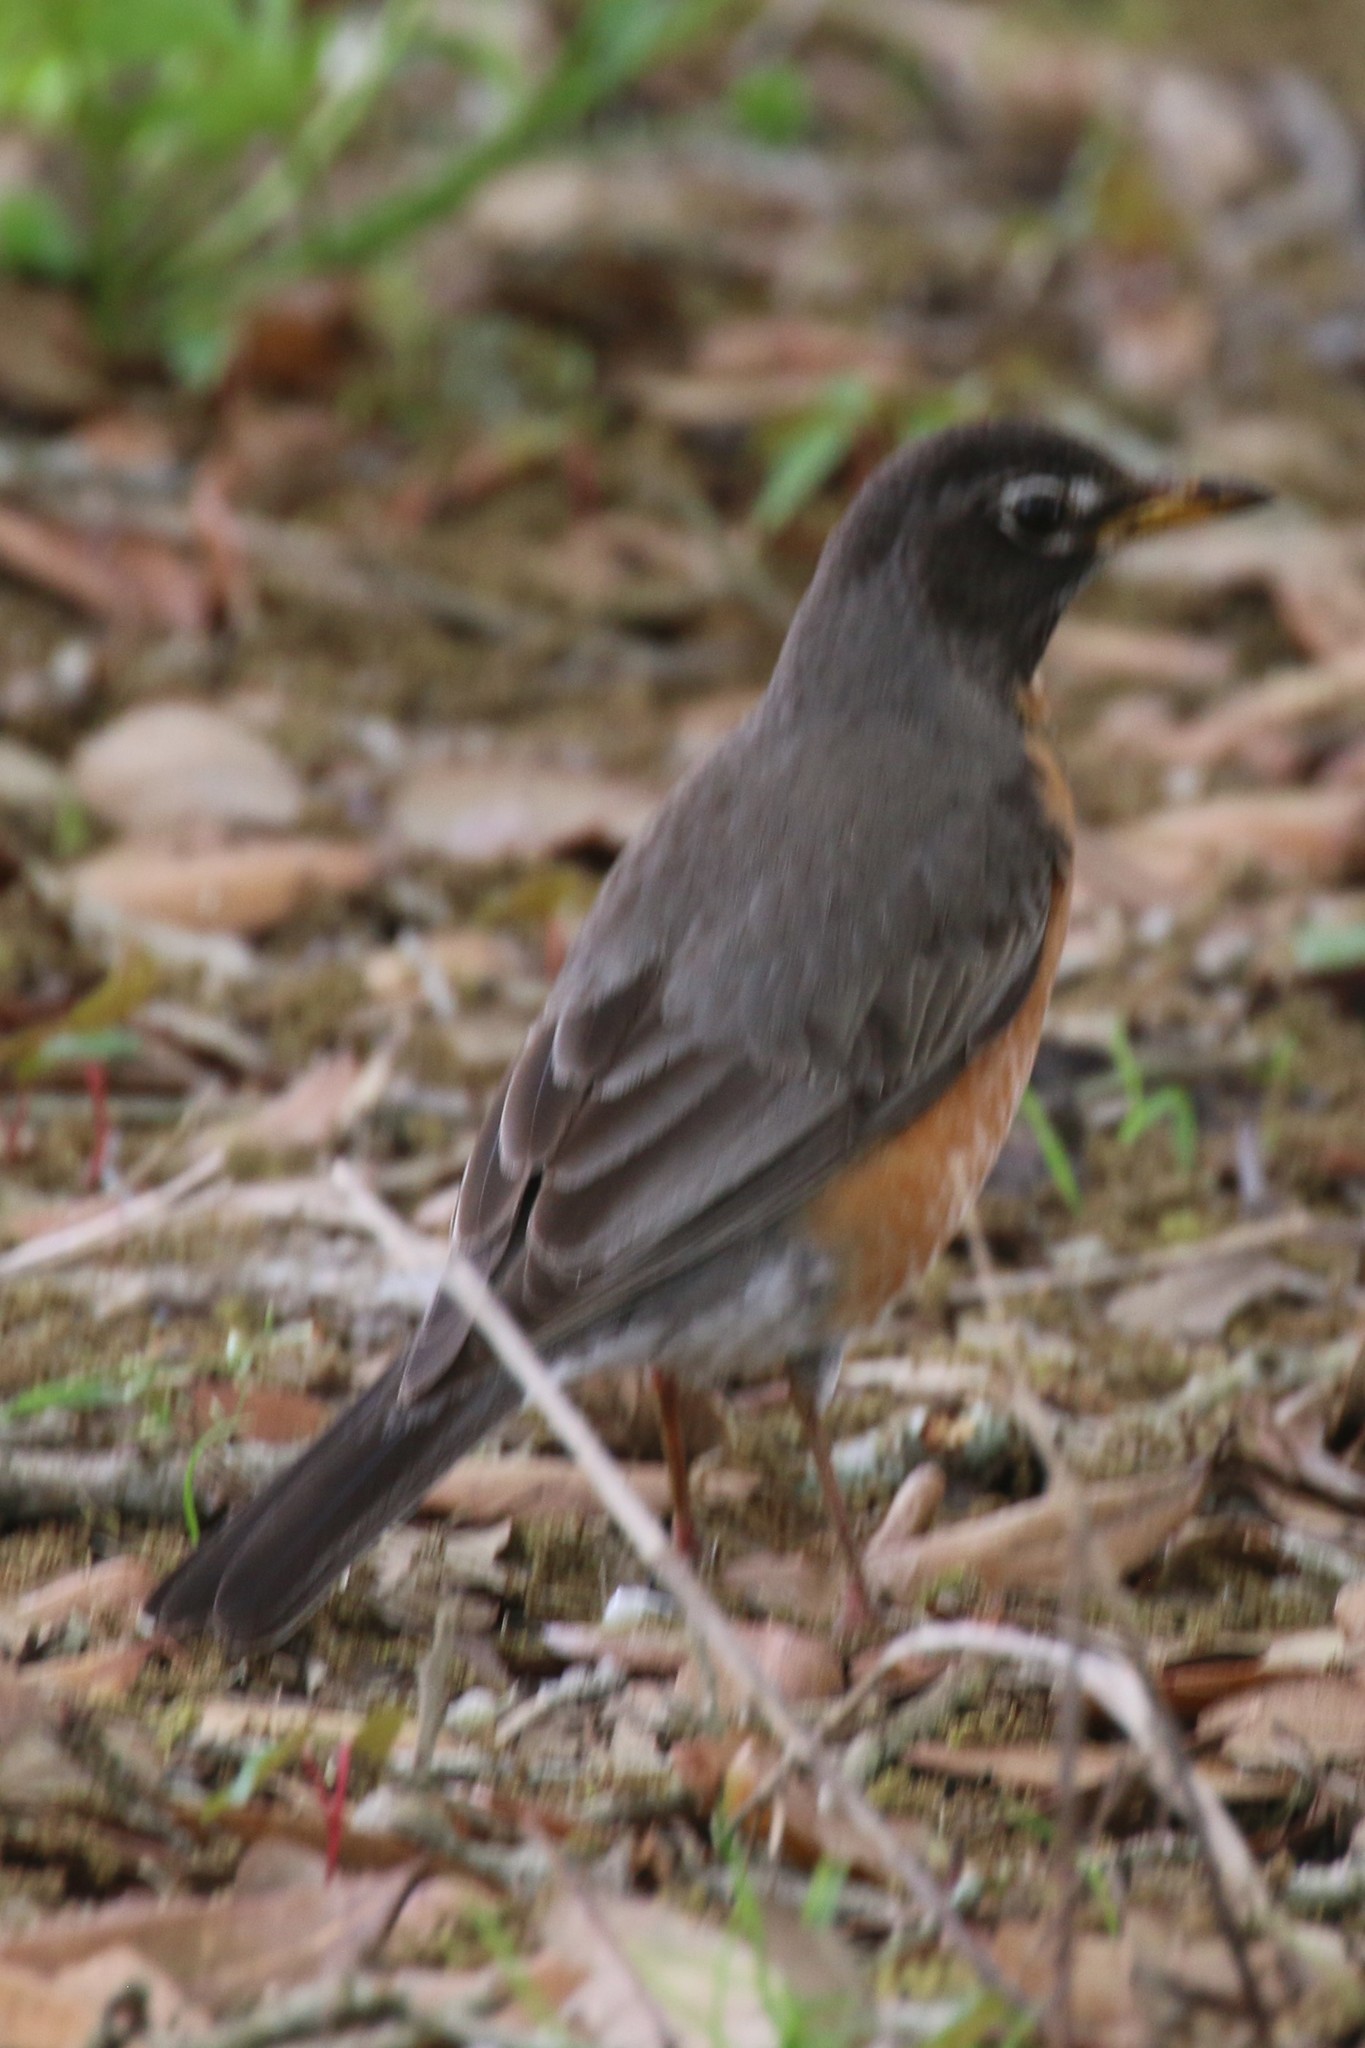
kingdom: Animalia
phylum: Chordata
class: Aves
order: Passeriformes
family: Turdidae
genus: Turdus
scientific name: Turdus migratorius
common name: American robin
